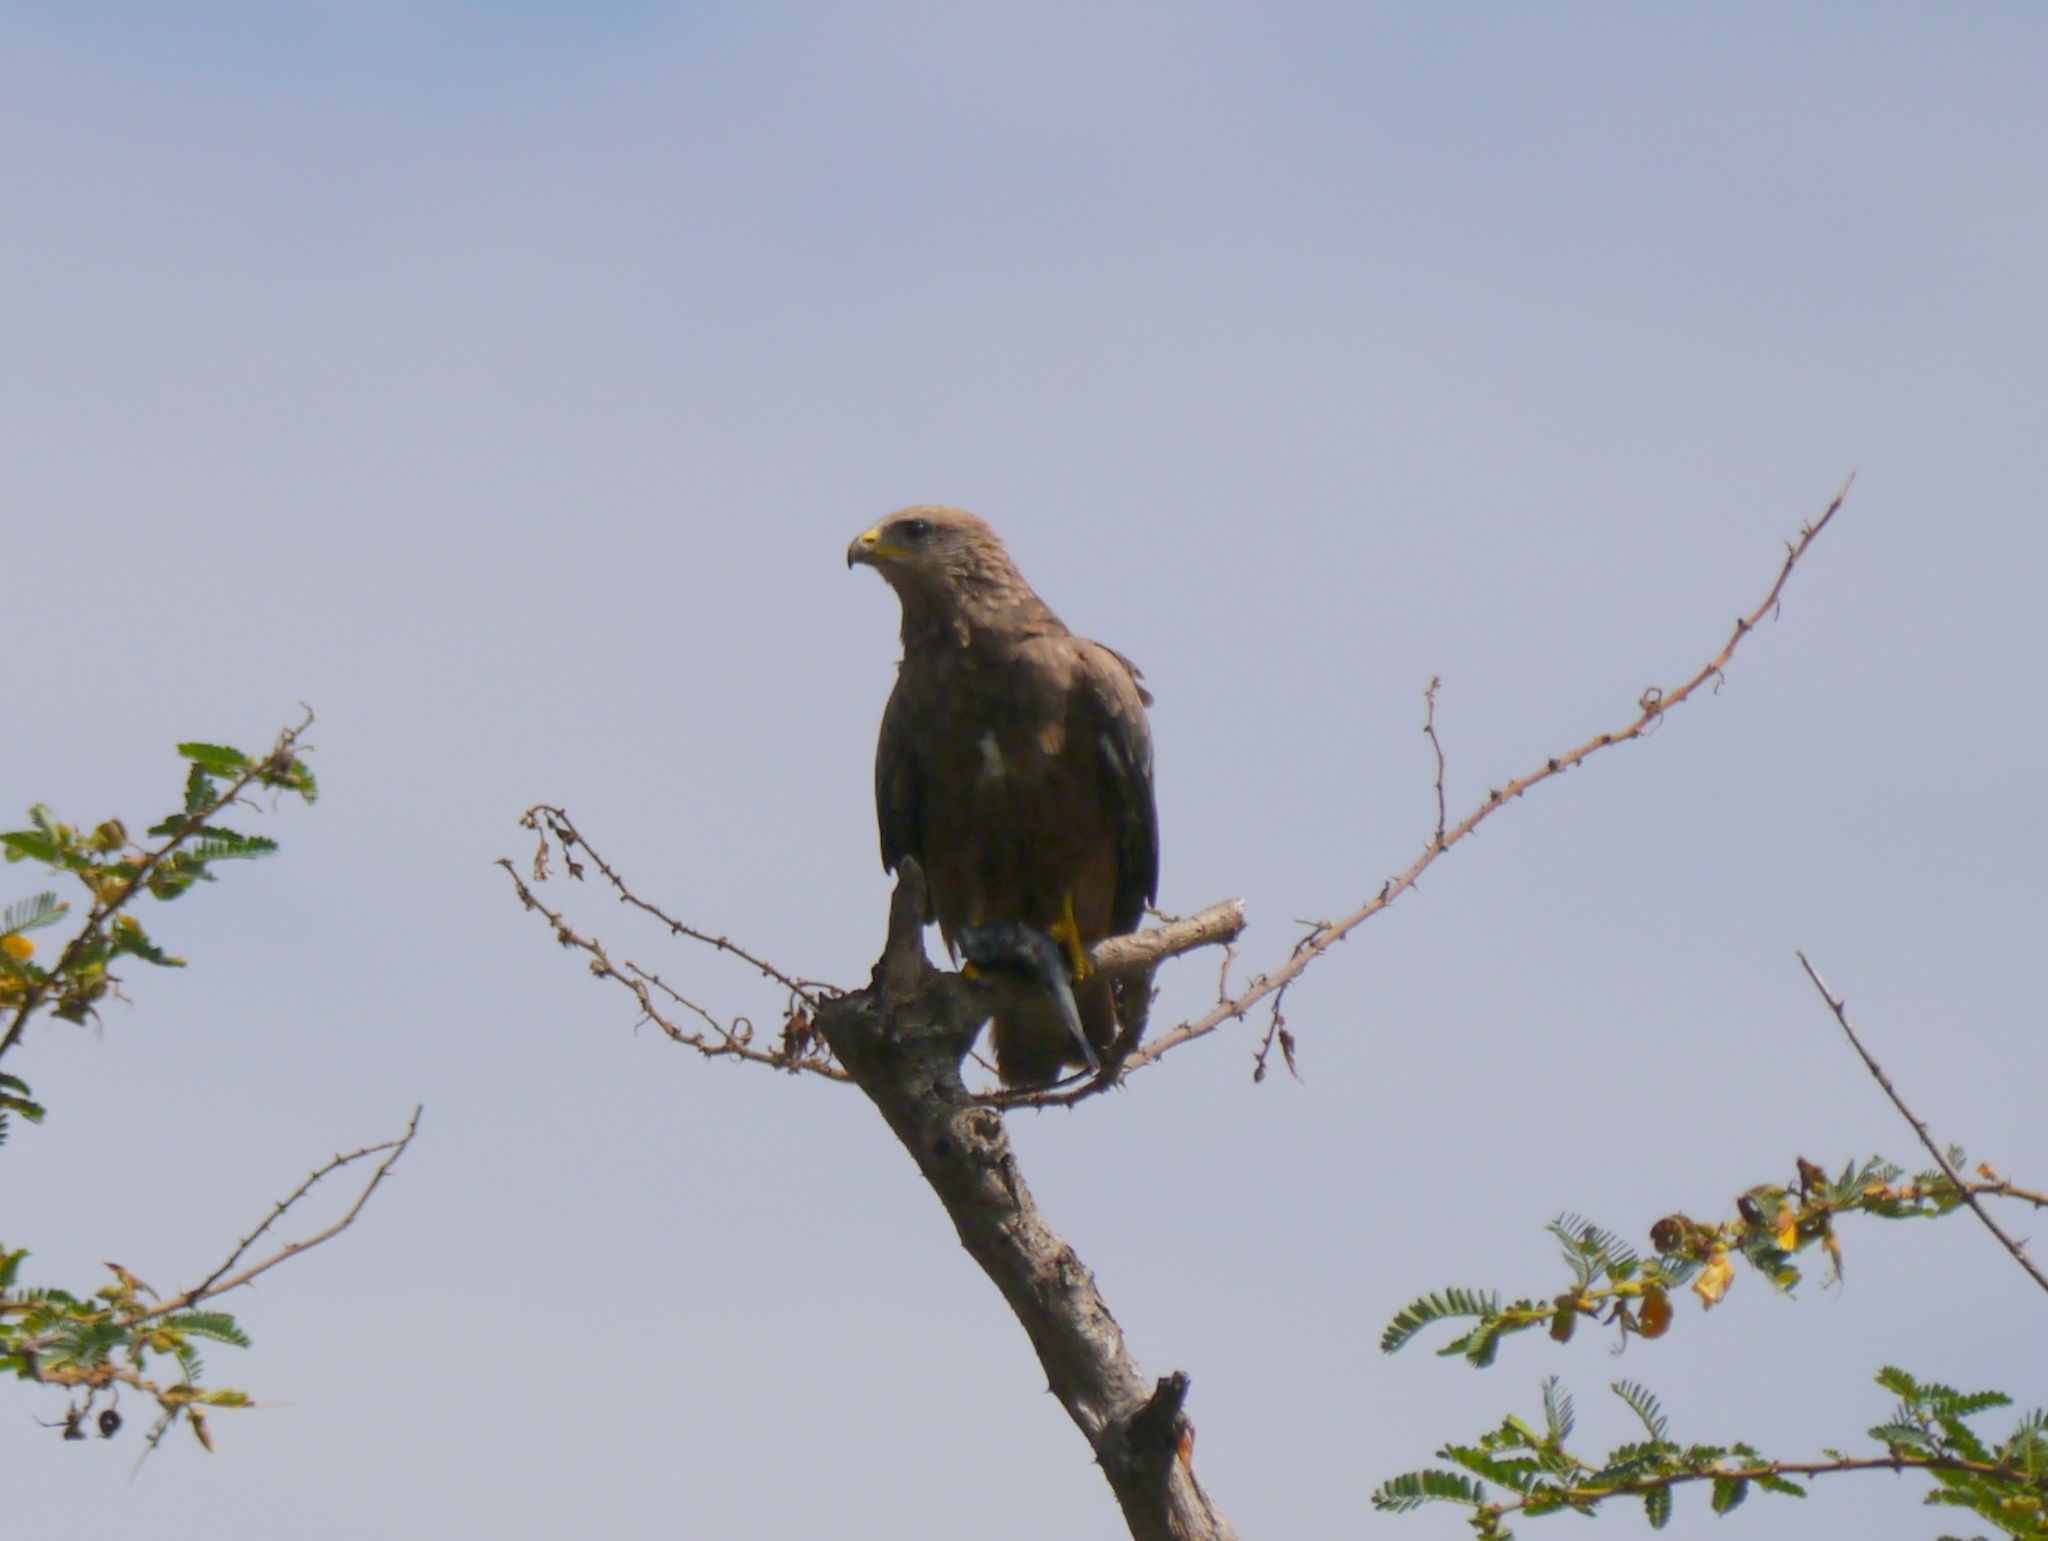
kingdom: Animalia
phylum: Chordata
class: Aves
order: Accipitriformes
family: Accipitridae
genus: Milvus
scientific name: Milvus migrans
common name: Black kite
